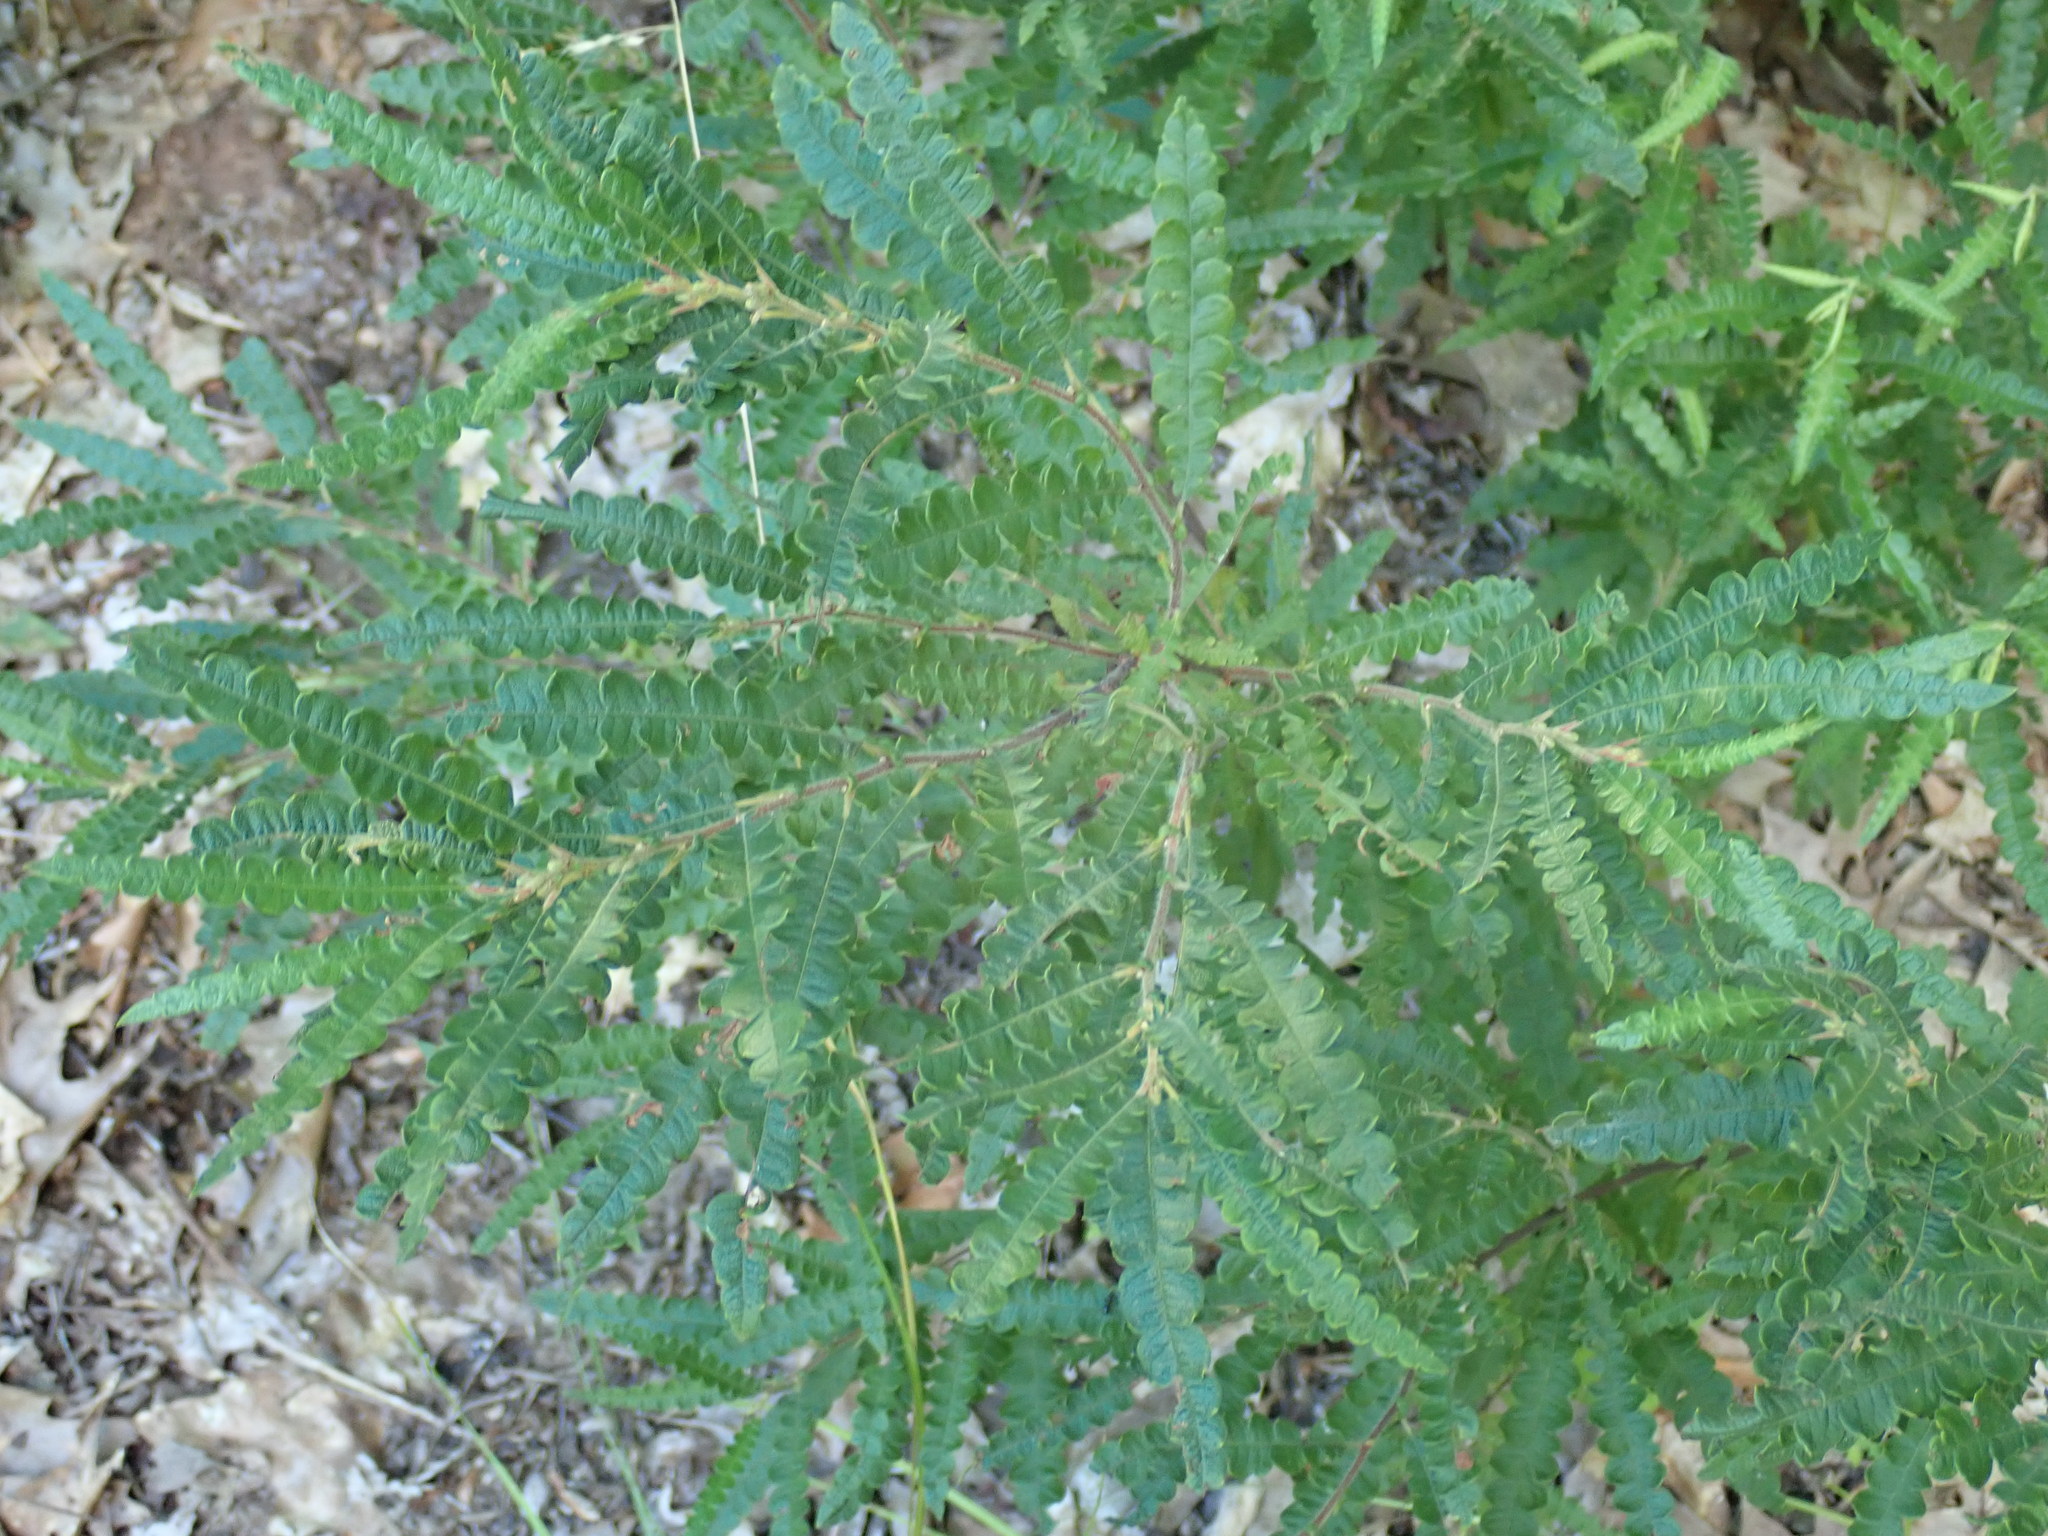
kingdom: Plantae
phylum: Tracheophyta
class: Magnoliopsida
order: Fagales
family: Myricaceae
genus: Comptonia
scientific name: Comptonia peregrina
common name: Sweet-fern
